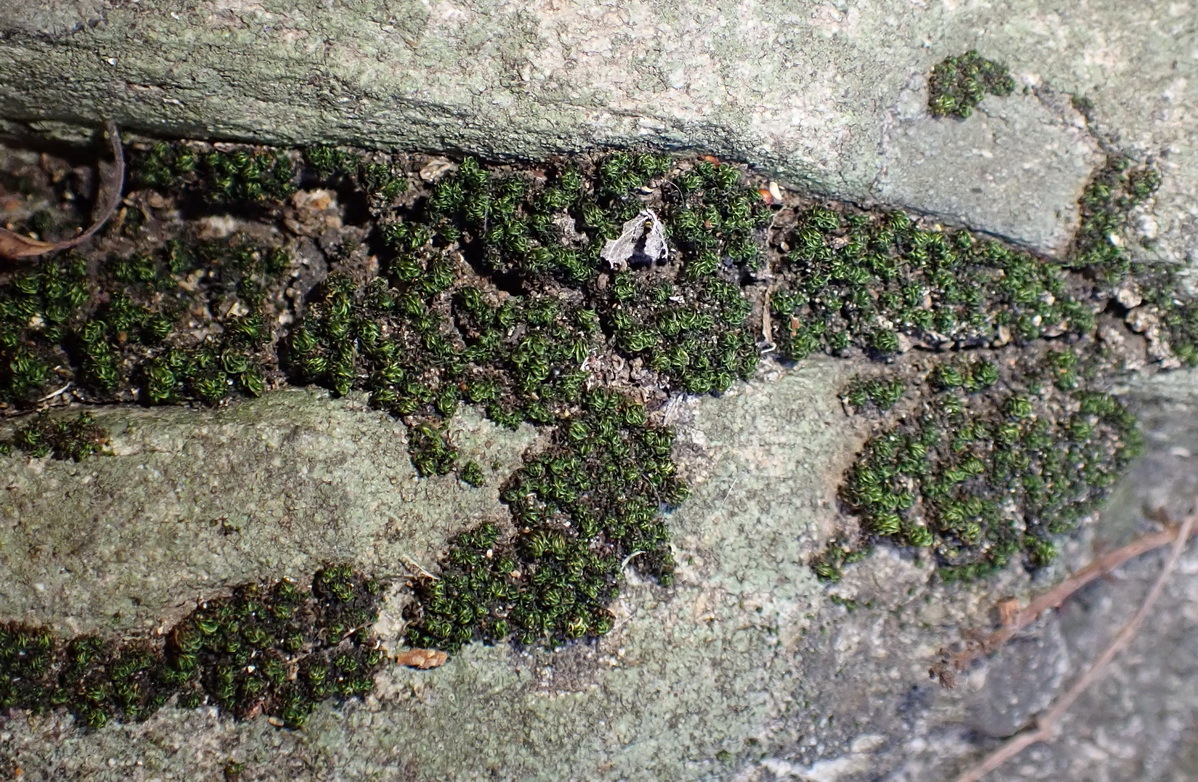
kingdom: Plantae
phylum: Bryophyta
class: Bryopsida
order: Grimmiales
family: Ptychomitriaceae
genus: Ptychomitrium
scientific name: Ptychomitrium crispatum
